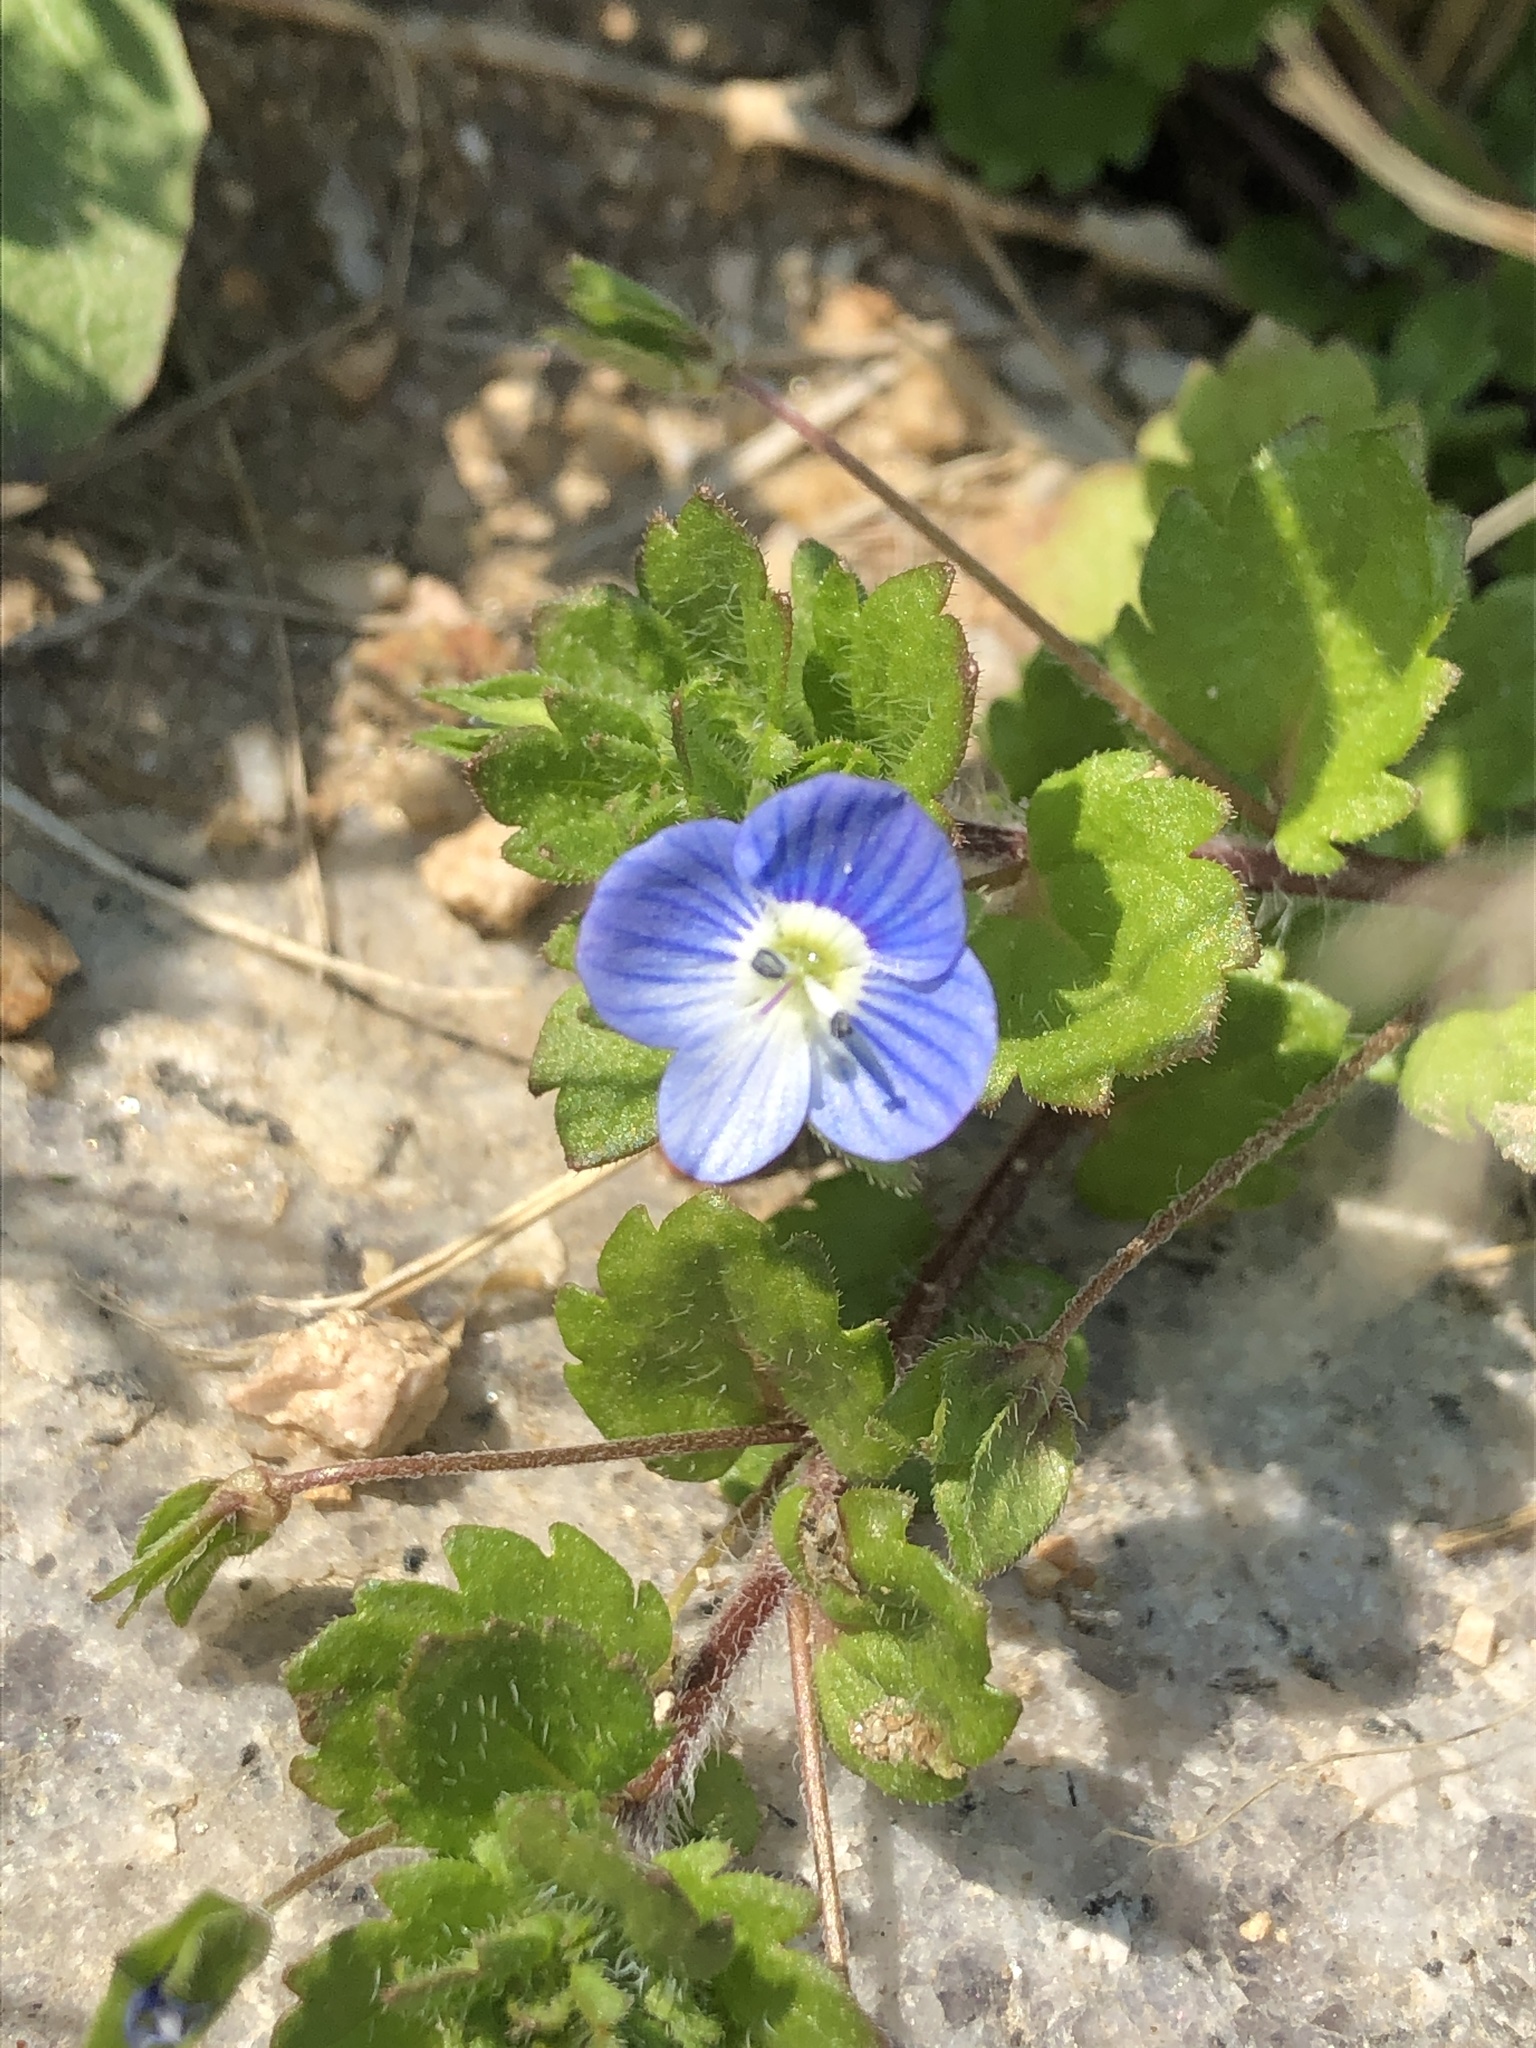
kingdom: Plantae
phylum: Tracheophyta
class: Magnoliopsida
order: Lamiales
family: Plantaginaceae
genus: Veronica
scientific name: Veronica persica
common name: Common field-speedwell
